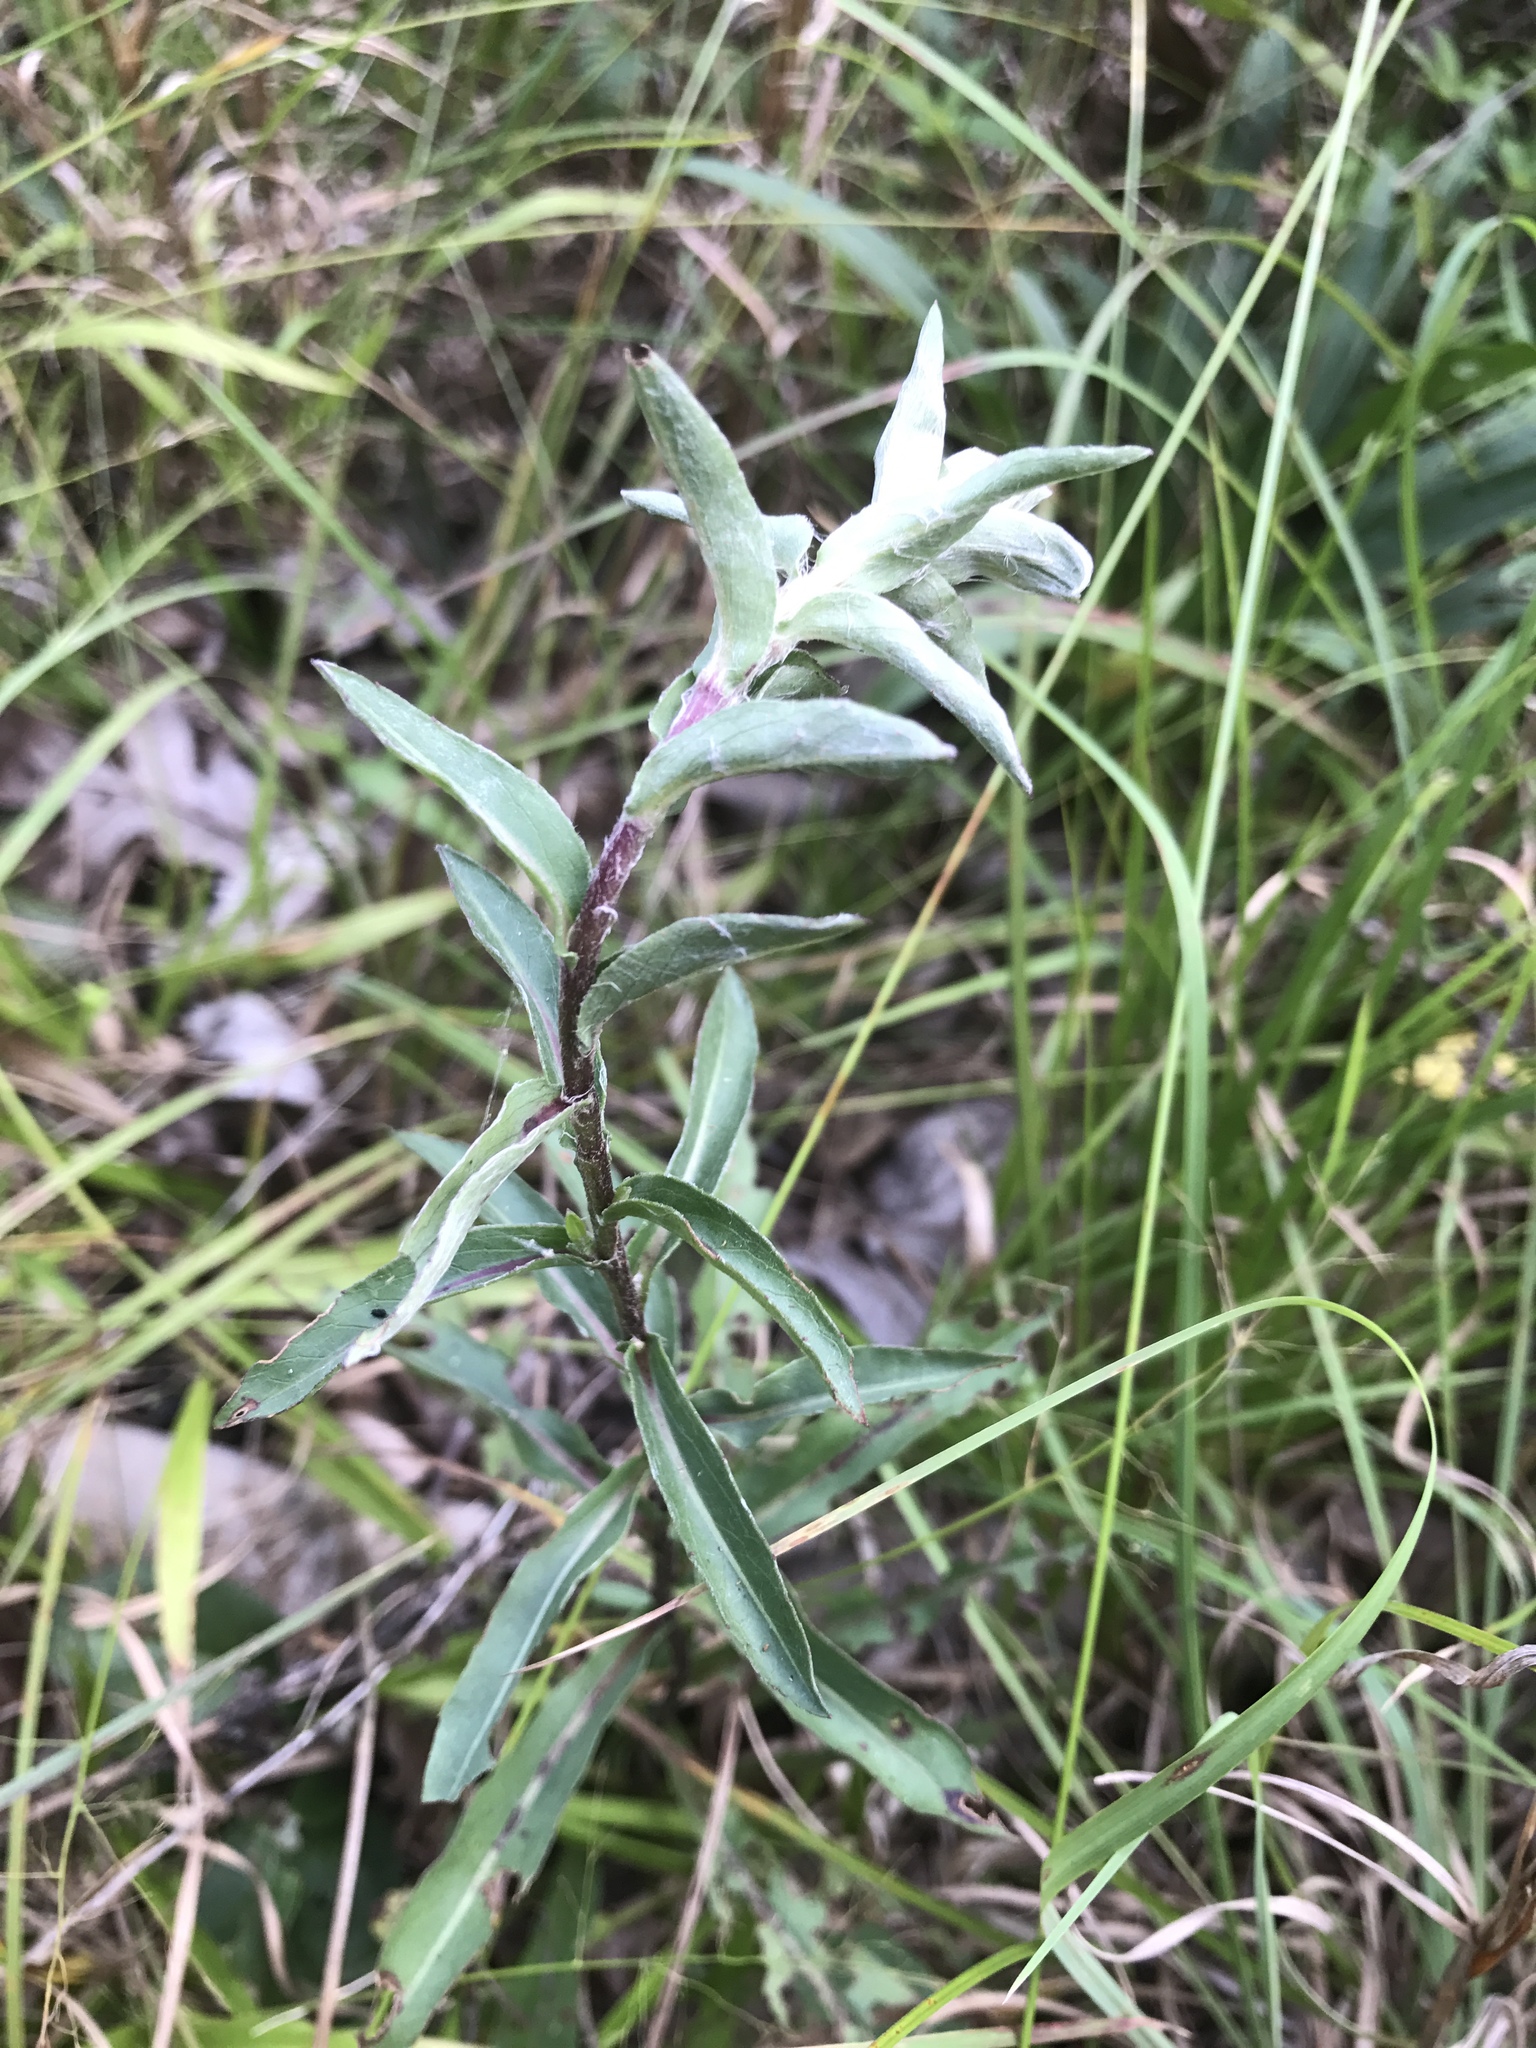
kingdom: Plantae
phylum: Tracheophyta
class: Magnoliopsida
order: Asterales
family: Asteraceae
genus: Chrysopsis
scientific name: Chrysopsis mariana
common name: Maryland golden-aster
